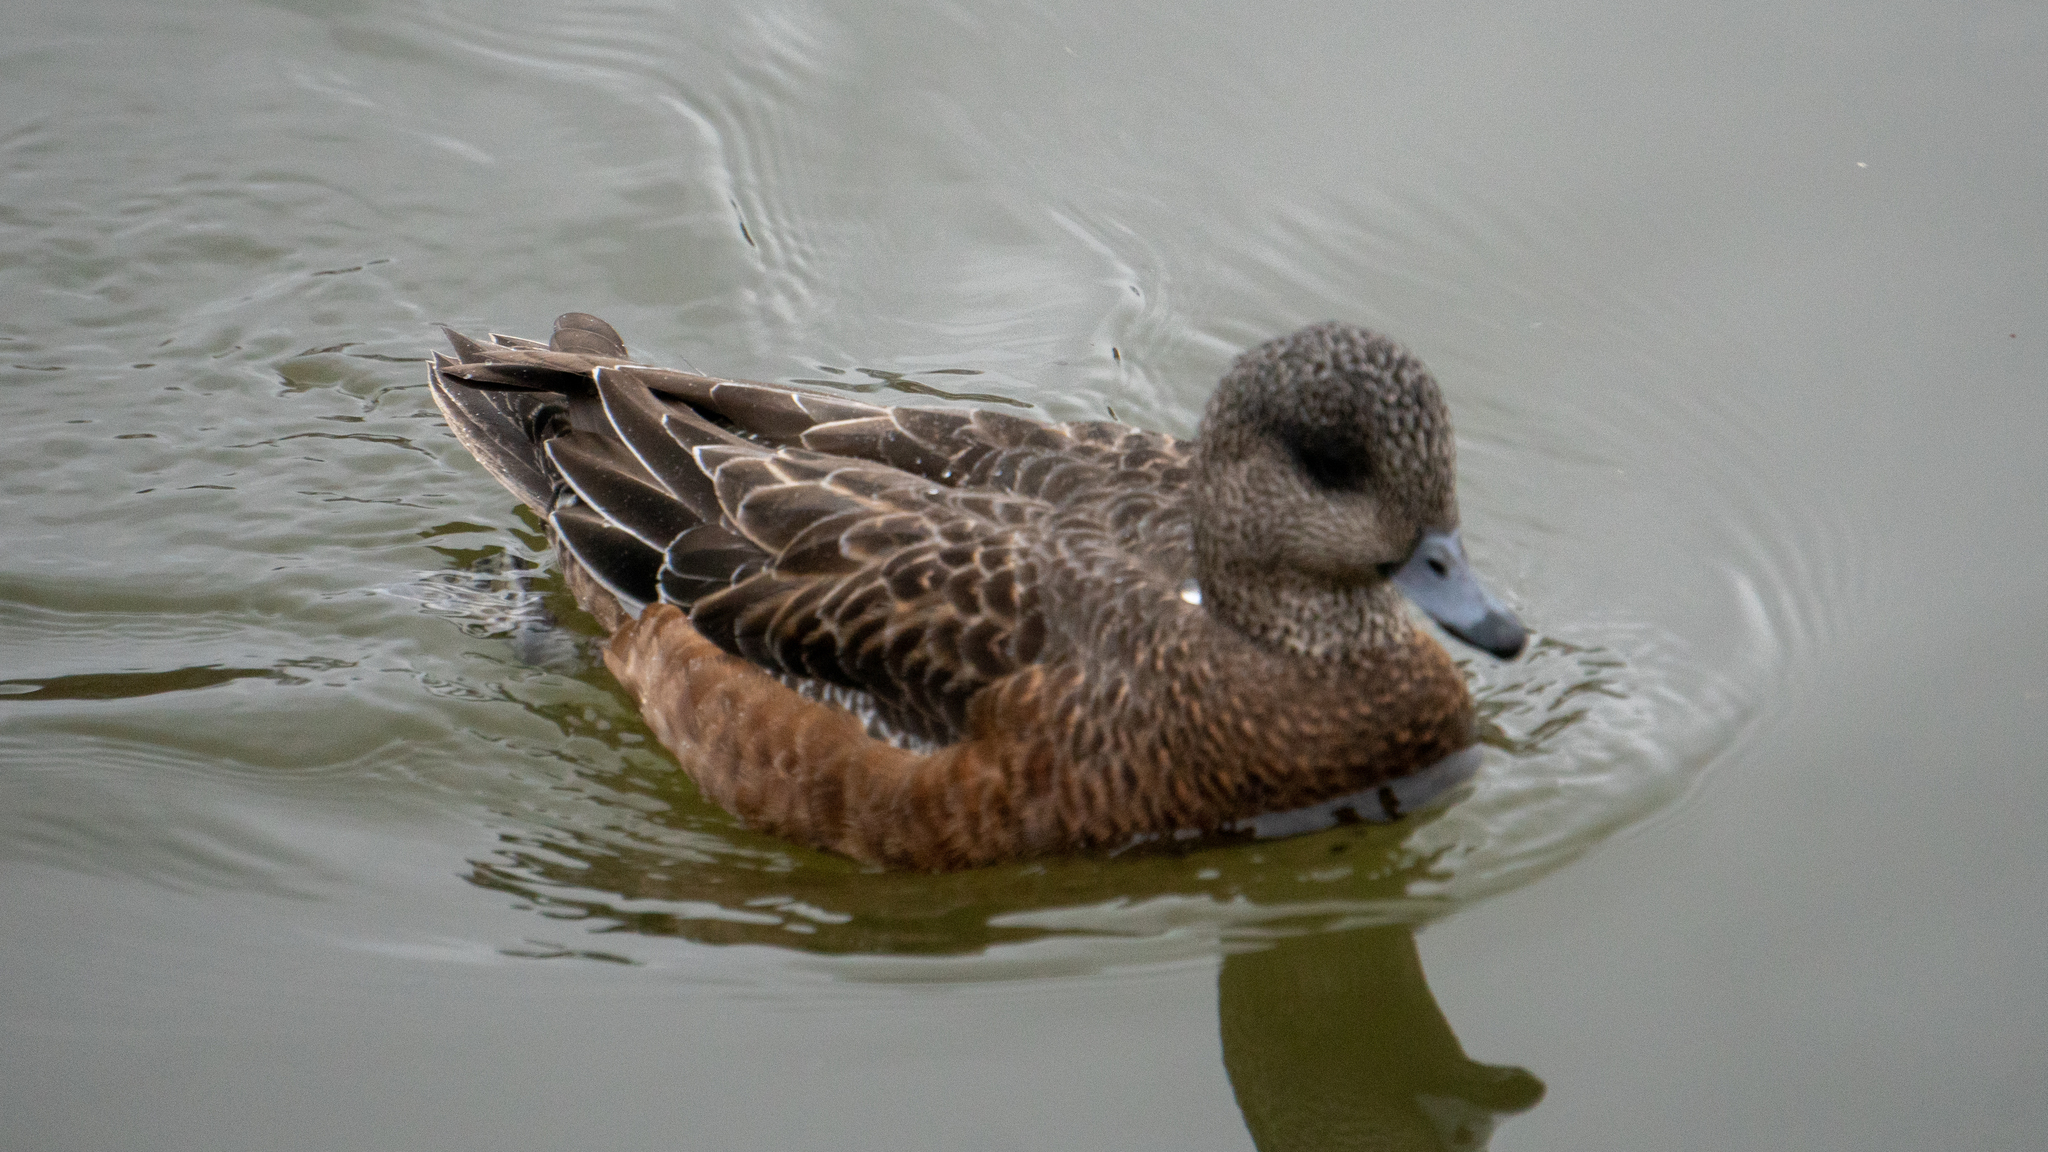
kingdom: Animalia
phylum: Chordata
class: Aves
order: Anseriformes
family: Anatidae
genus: Mareca
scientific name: Mareca americana
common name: American wigeon
